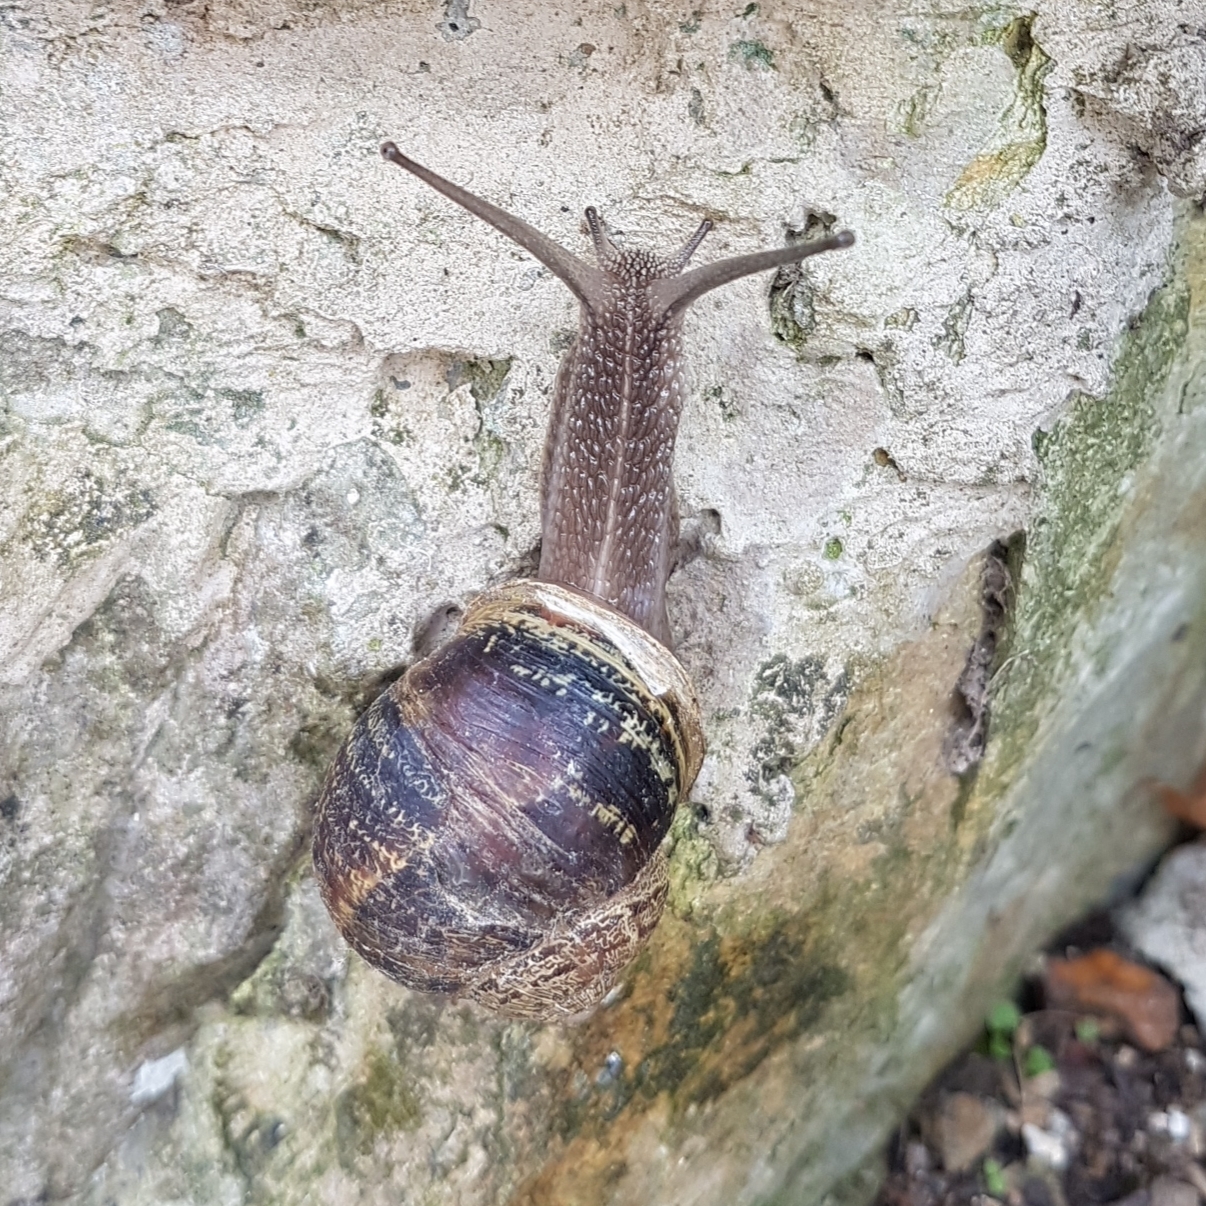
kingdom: Animalia
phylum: Mollusca
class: Gastropoda
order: Stylommatophora
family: Helicidae
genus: Cornu
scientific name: Cornu aspersum
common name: Brown garden snail
